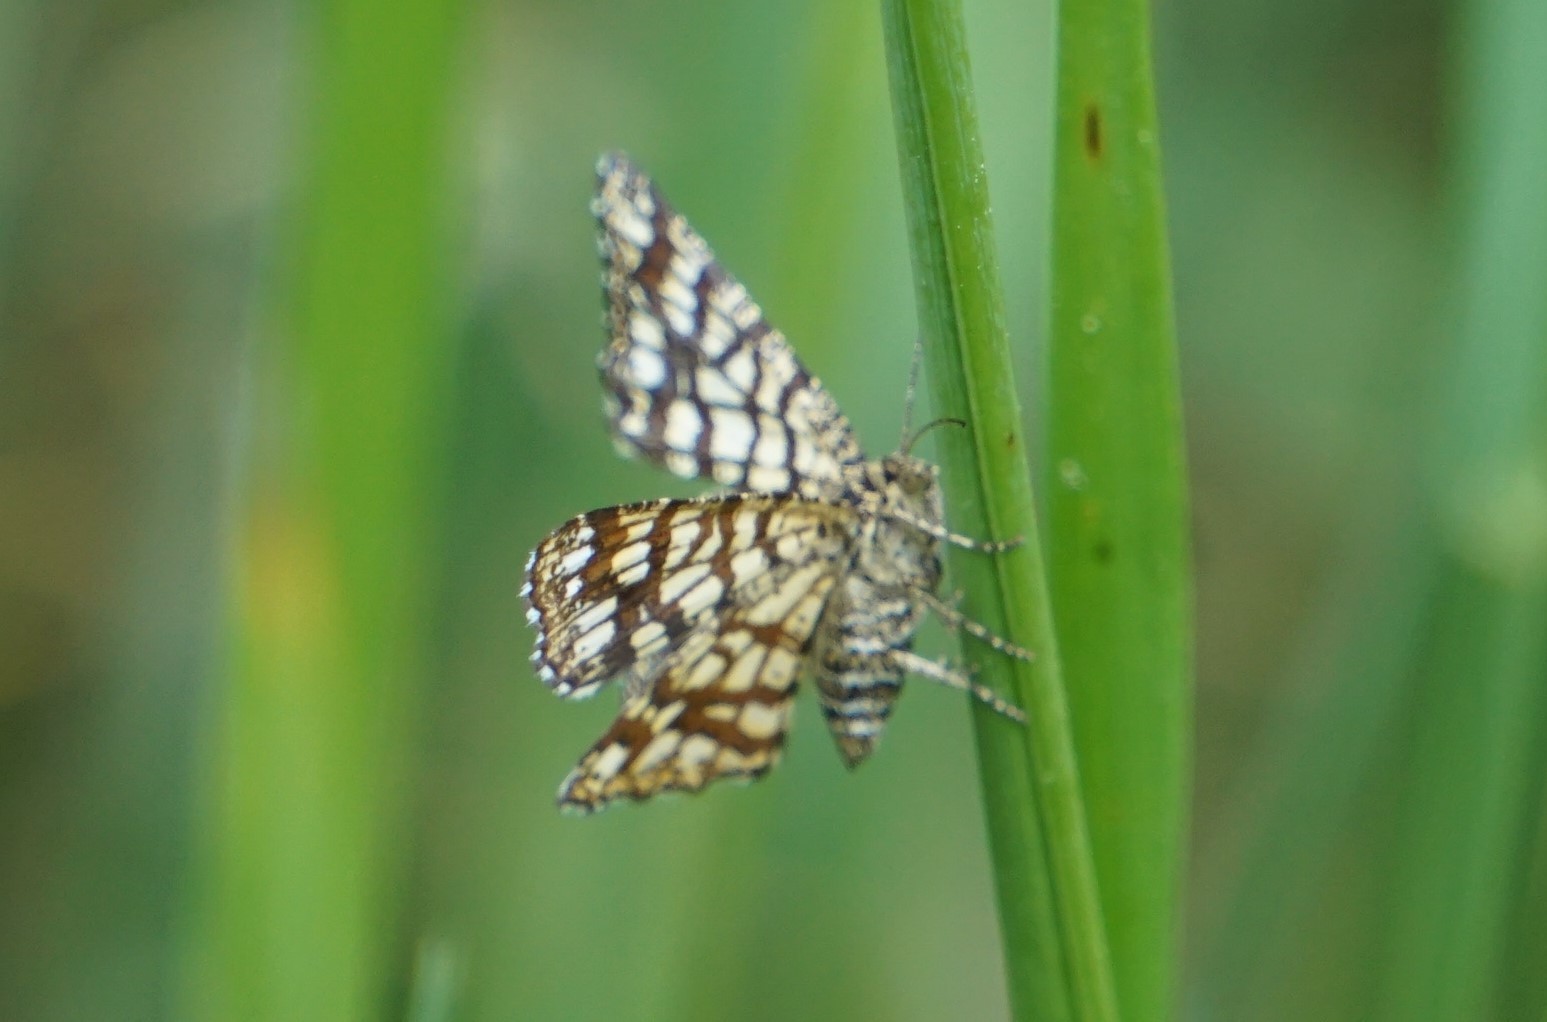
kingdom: Animalia
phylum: Arthropoda
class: Insecta
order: Lepidoptera
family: Geometridae
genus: Chiasmia
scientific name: Chiasmia clathrata
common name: Latticed heath
